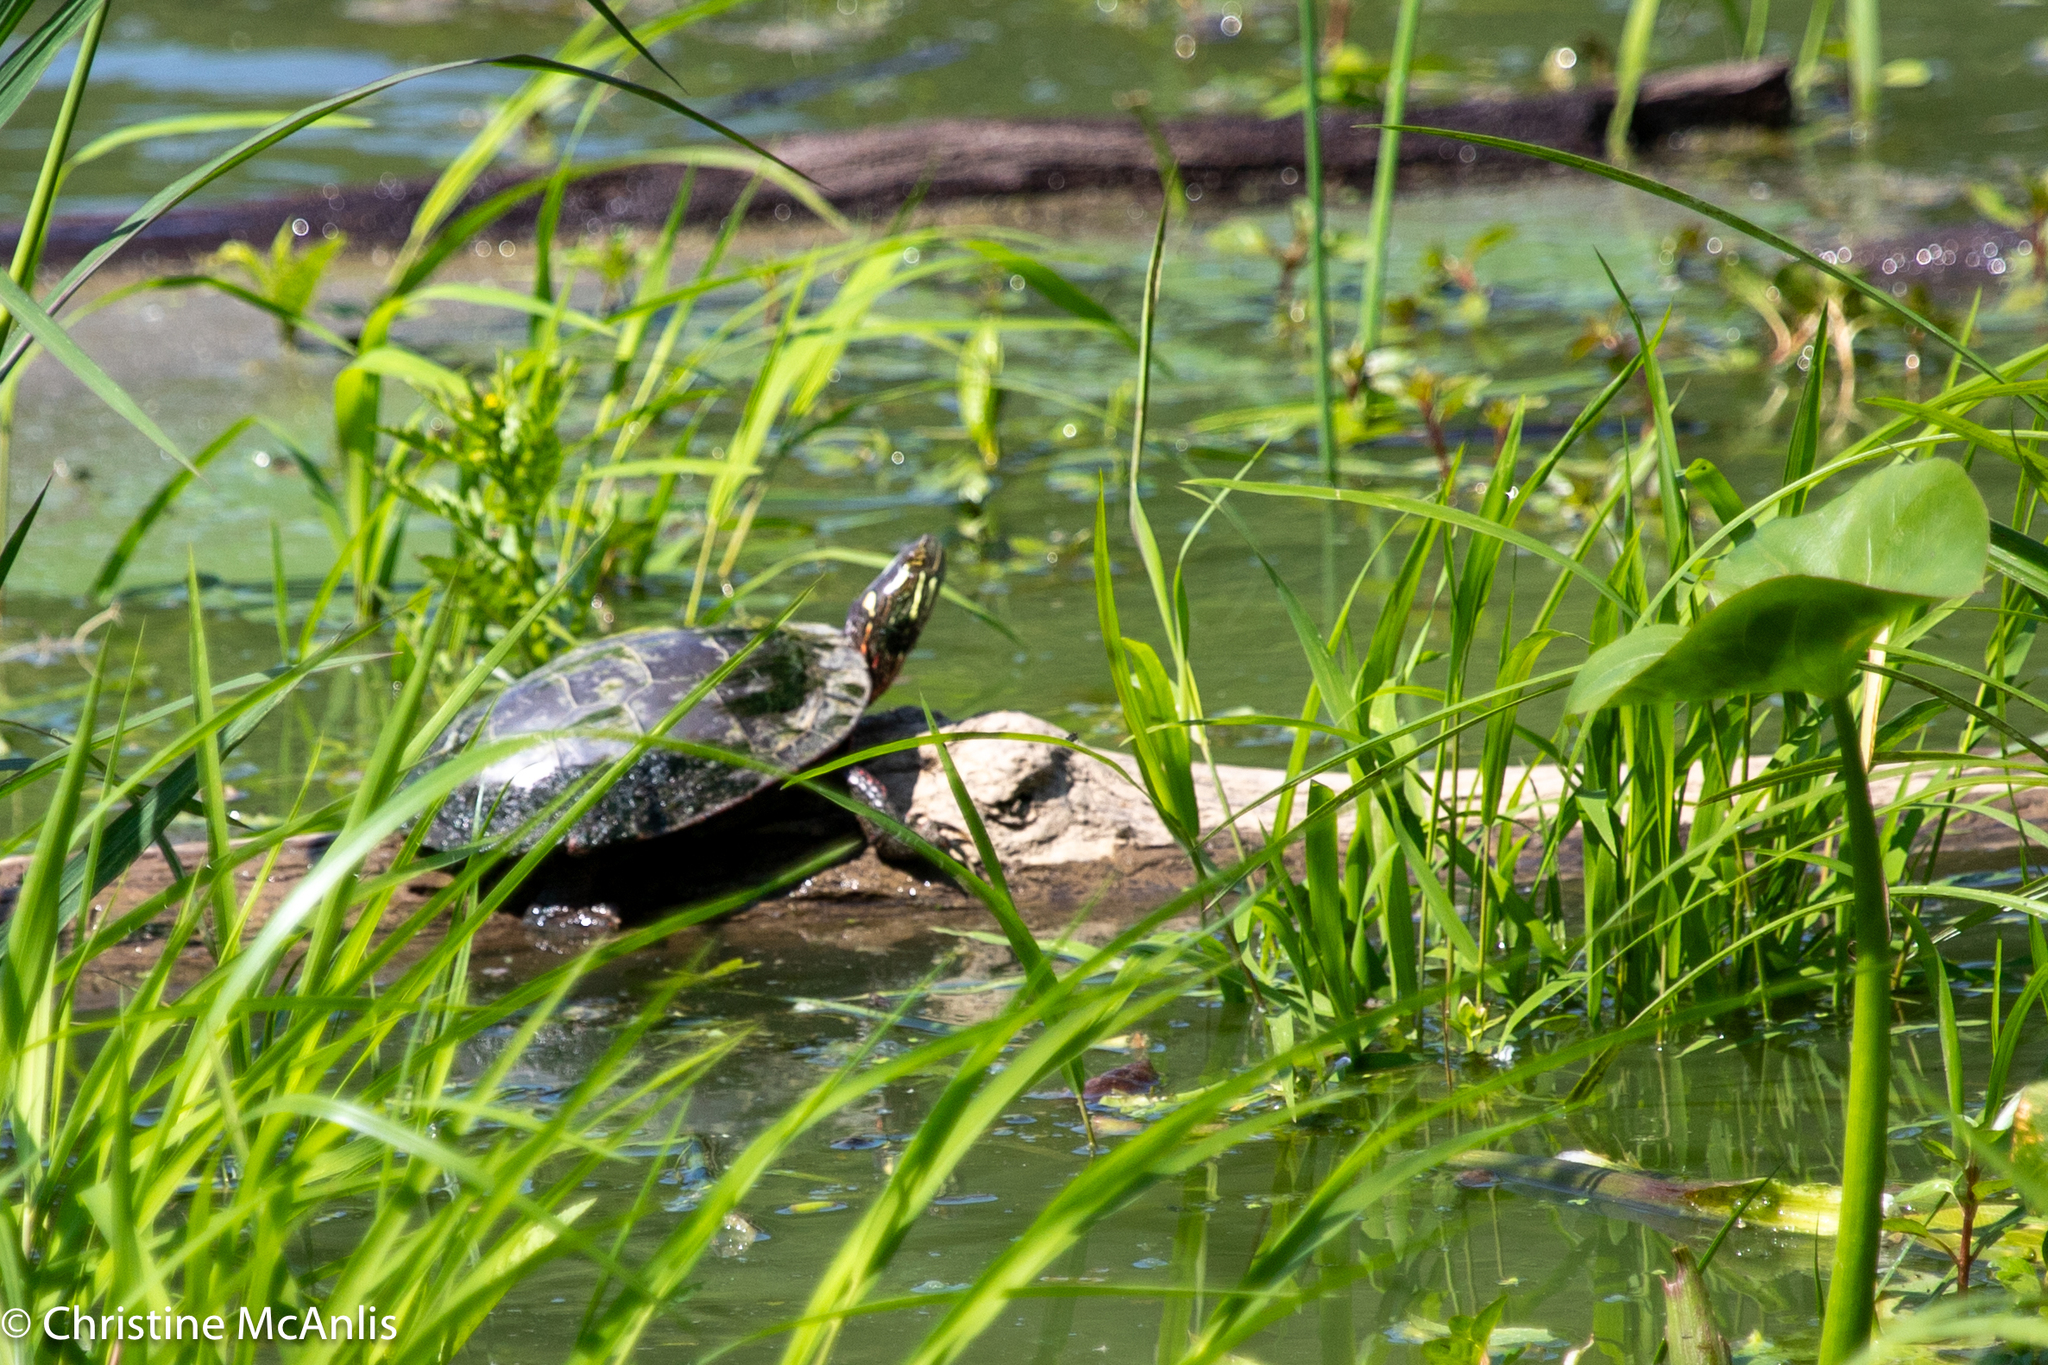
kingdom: Animalia
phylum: Chordata
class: Testudines
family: Emydidae
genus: Chrysemys
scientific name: Chrysemys picta
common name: Painted turtle
